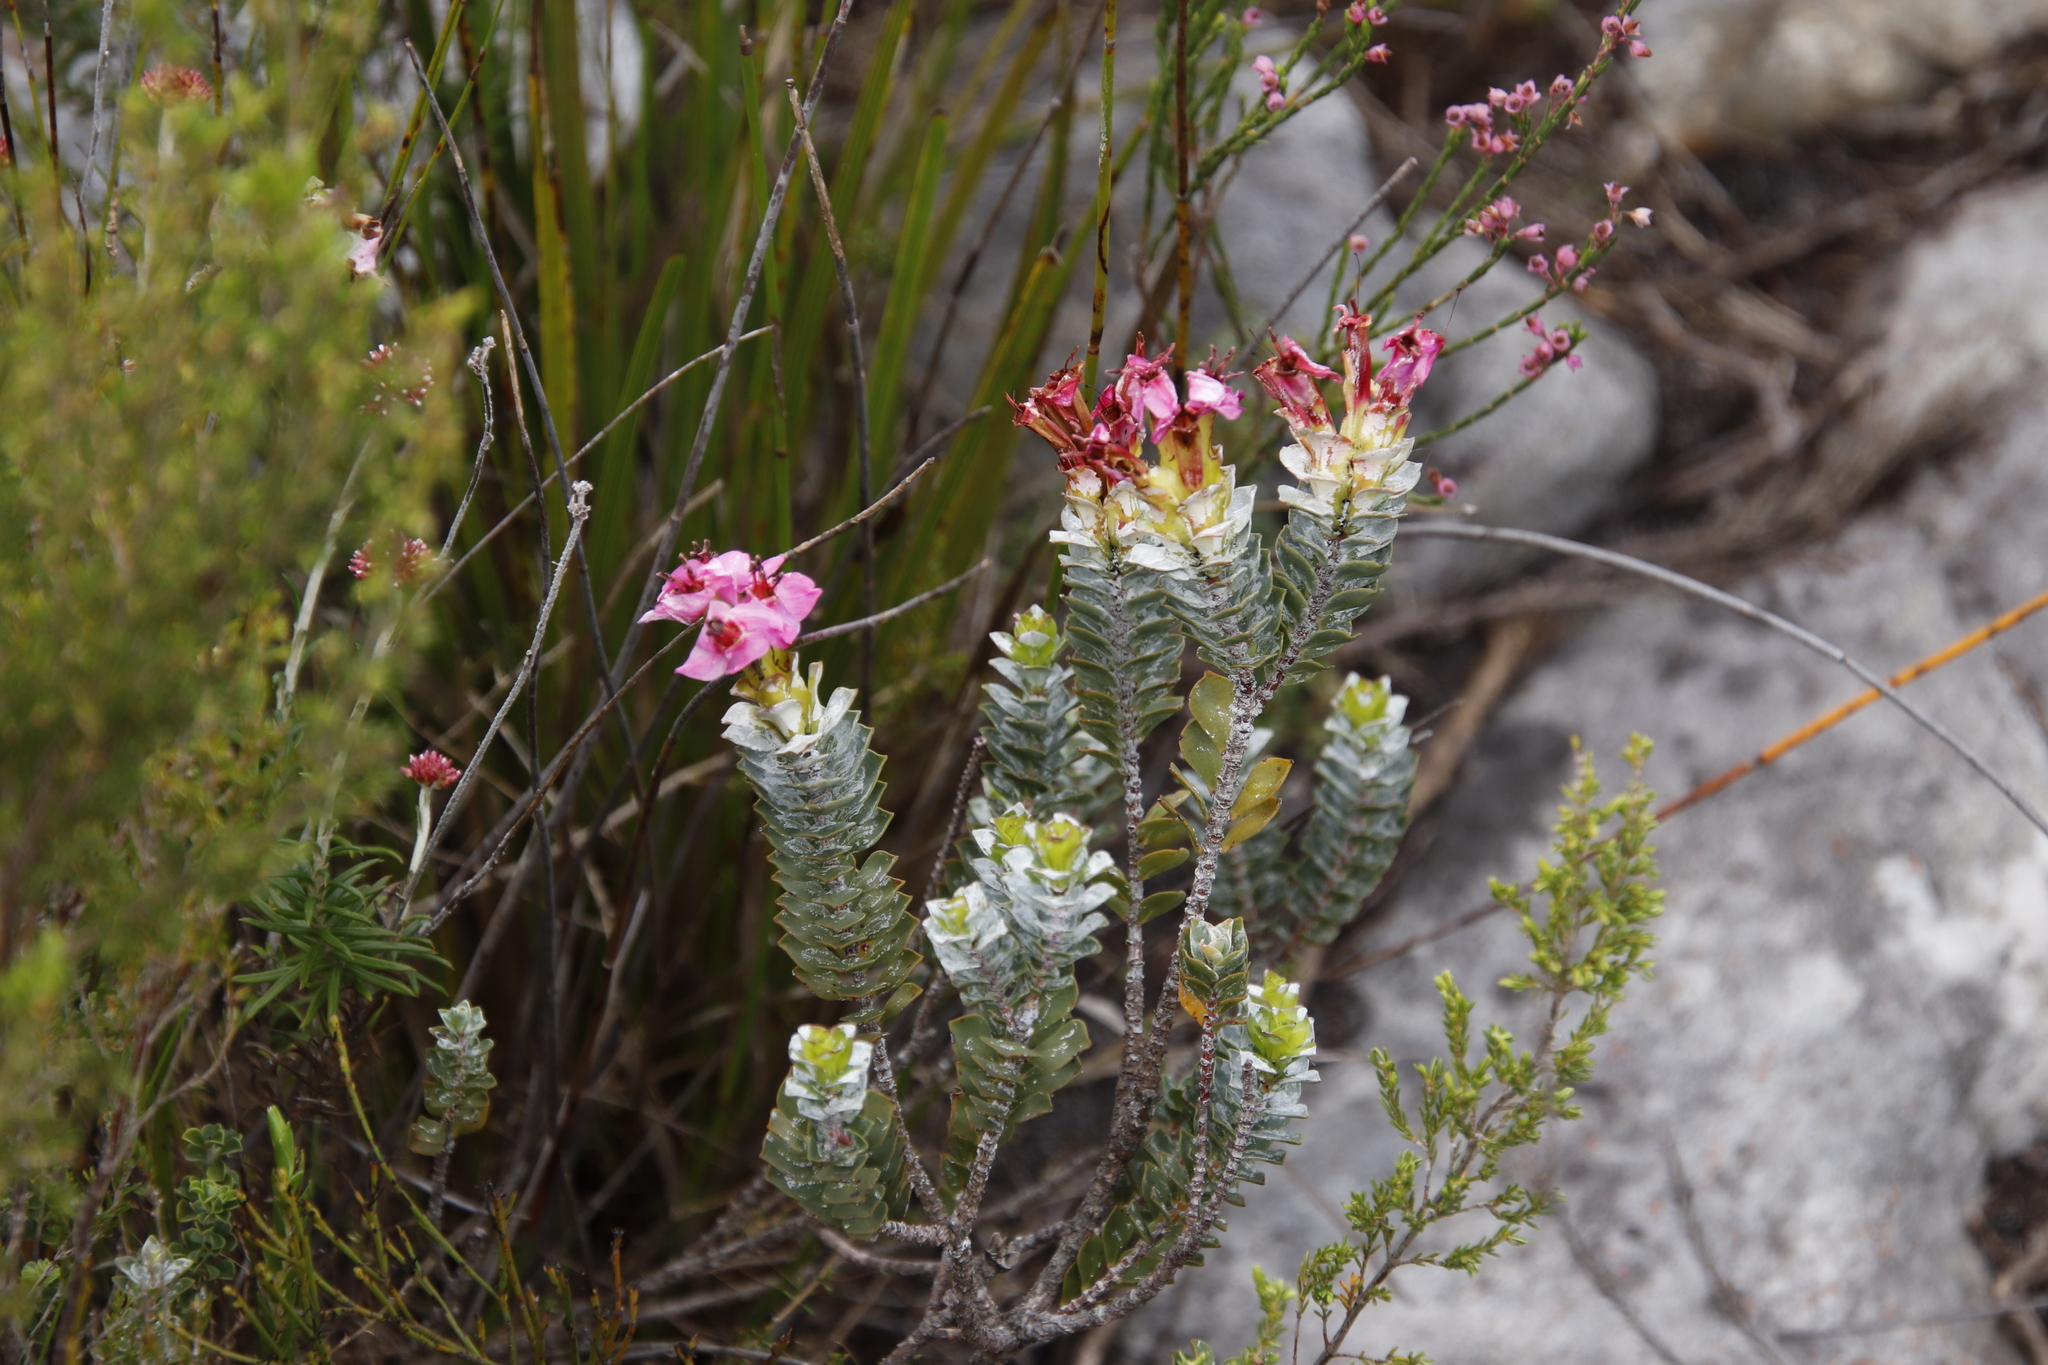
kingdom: Plantae
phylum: Tracheophyta
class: Magnoliopsida
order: Myrtales
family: Penaeaceae
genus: Saltera
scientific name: Saltera sarcocolla
